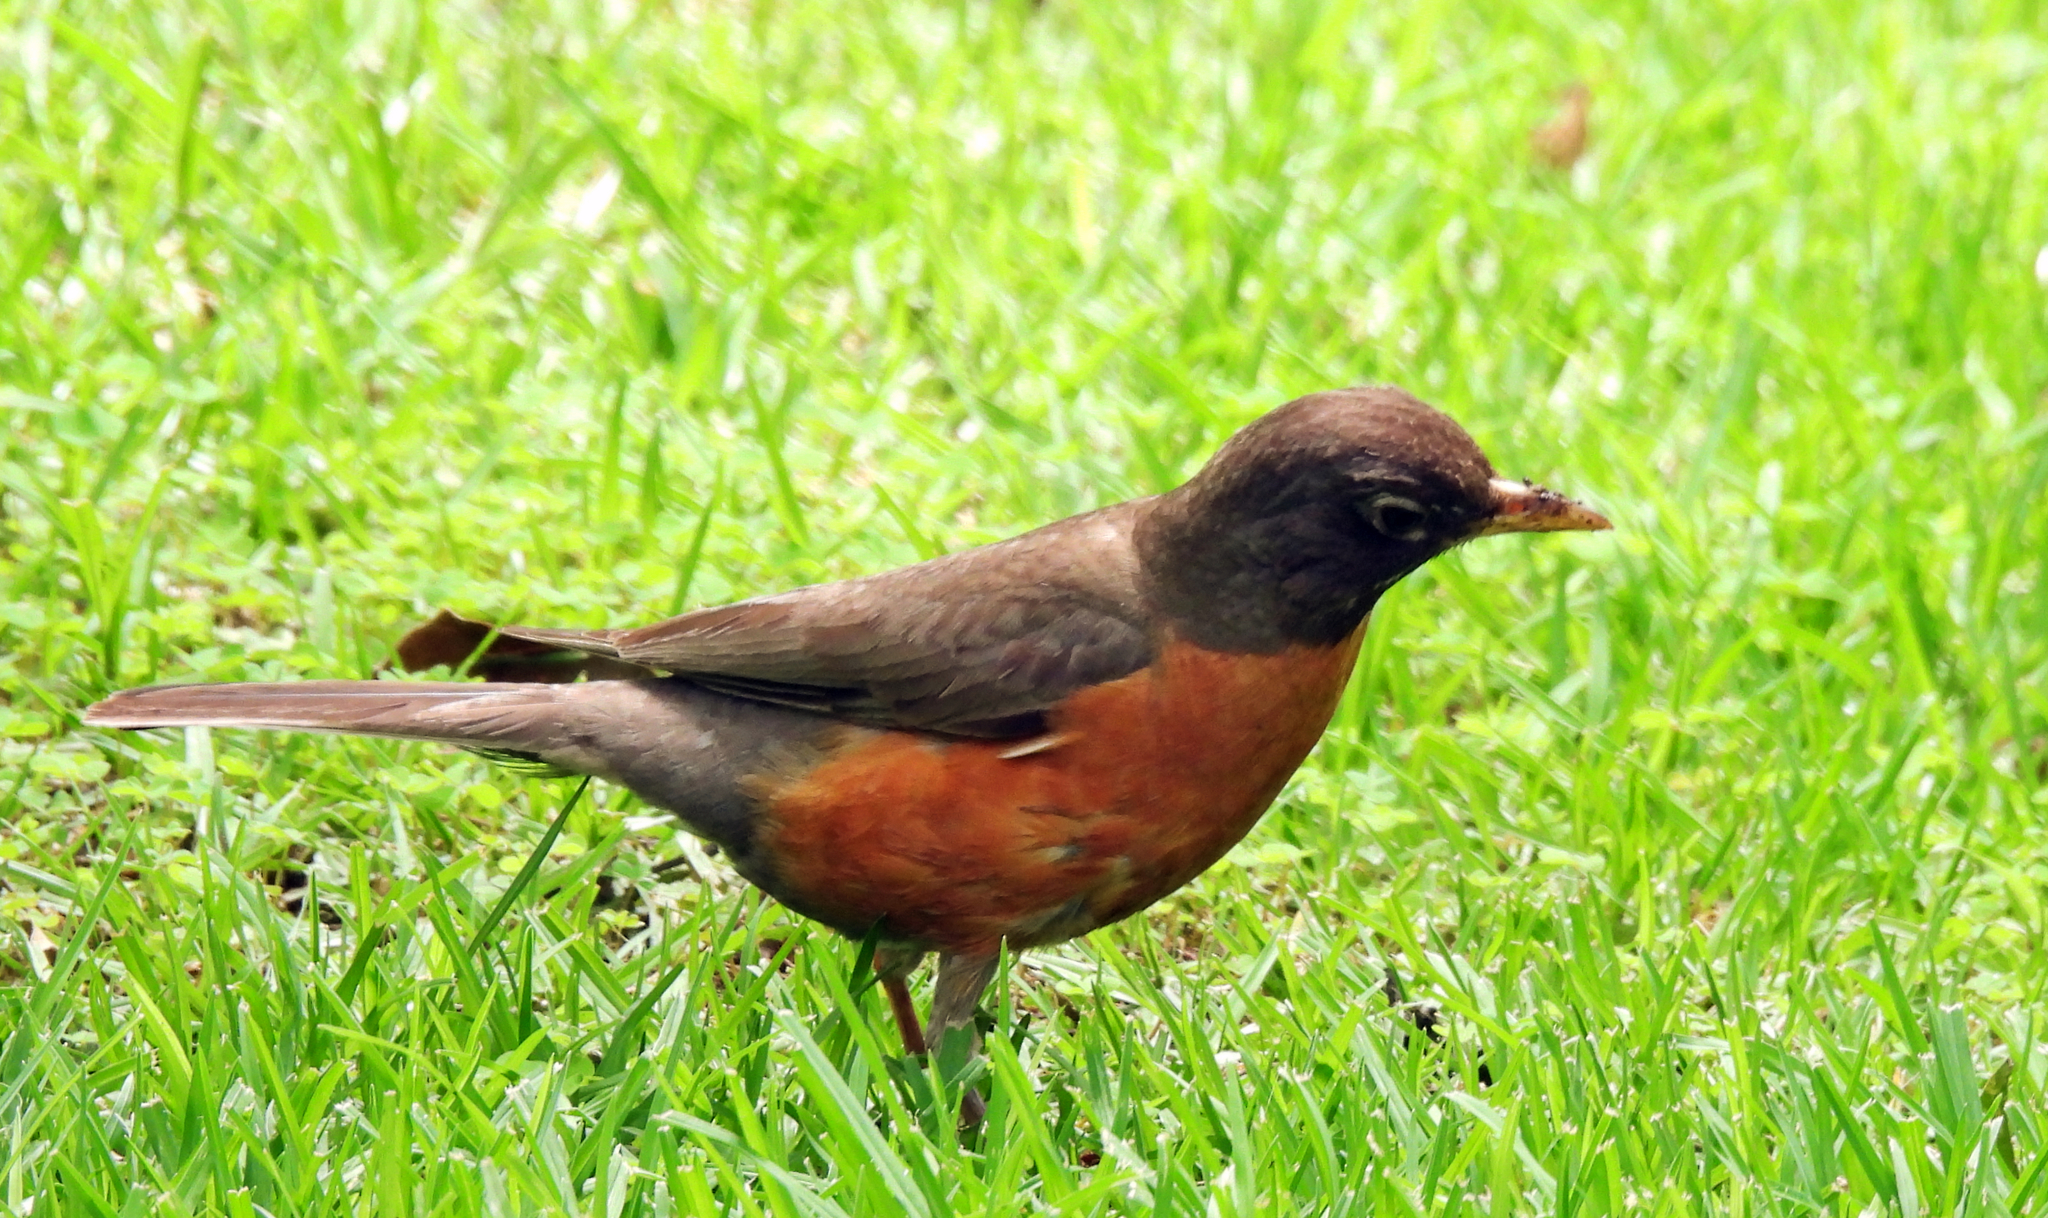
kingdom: Animalia
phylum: Chordata
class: Aves
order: Passeriformes
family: Turdidae
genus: Turdus
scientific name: Turdus migratorius
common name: American robin
